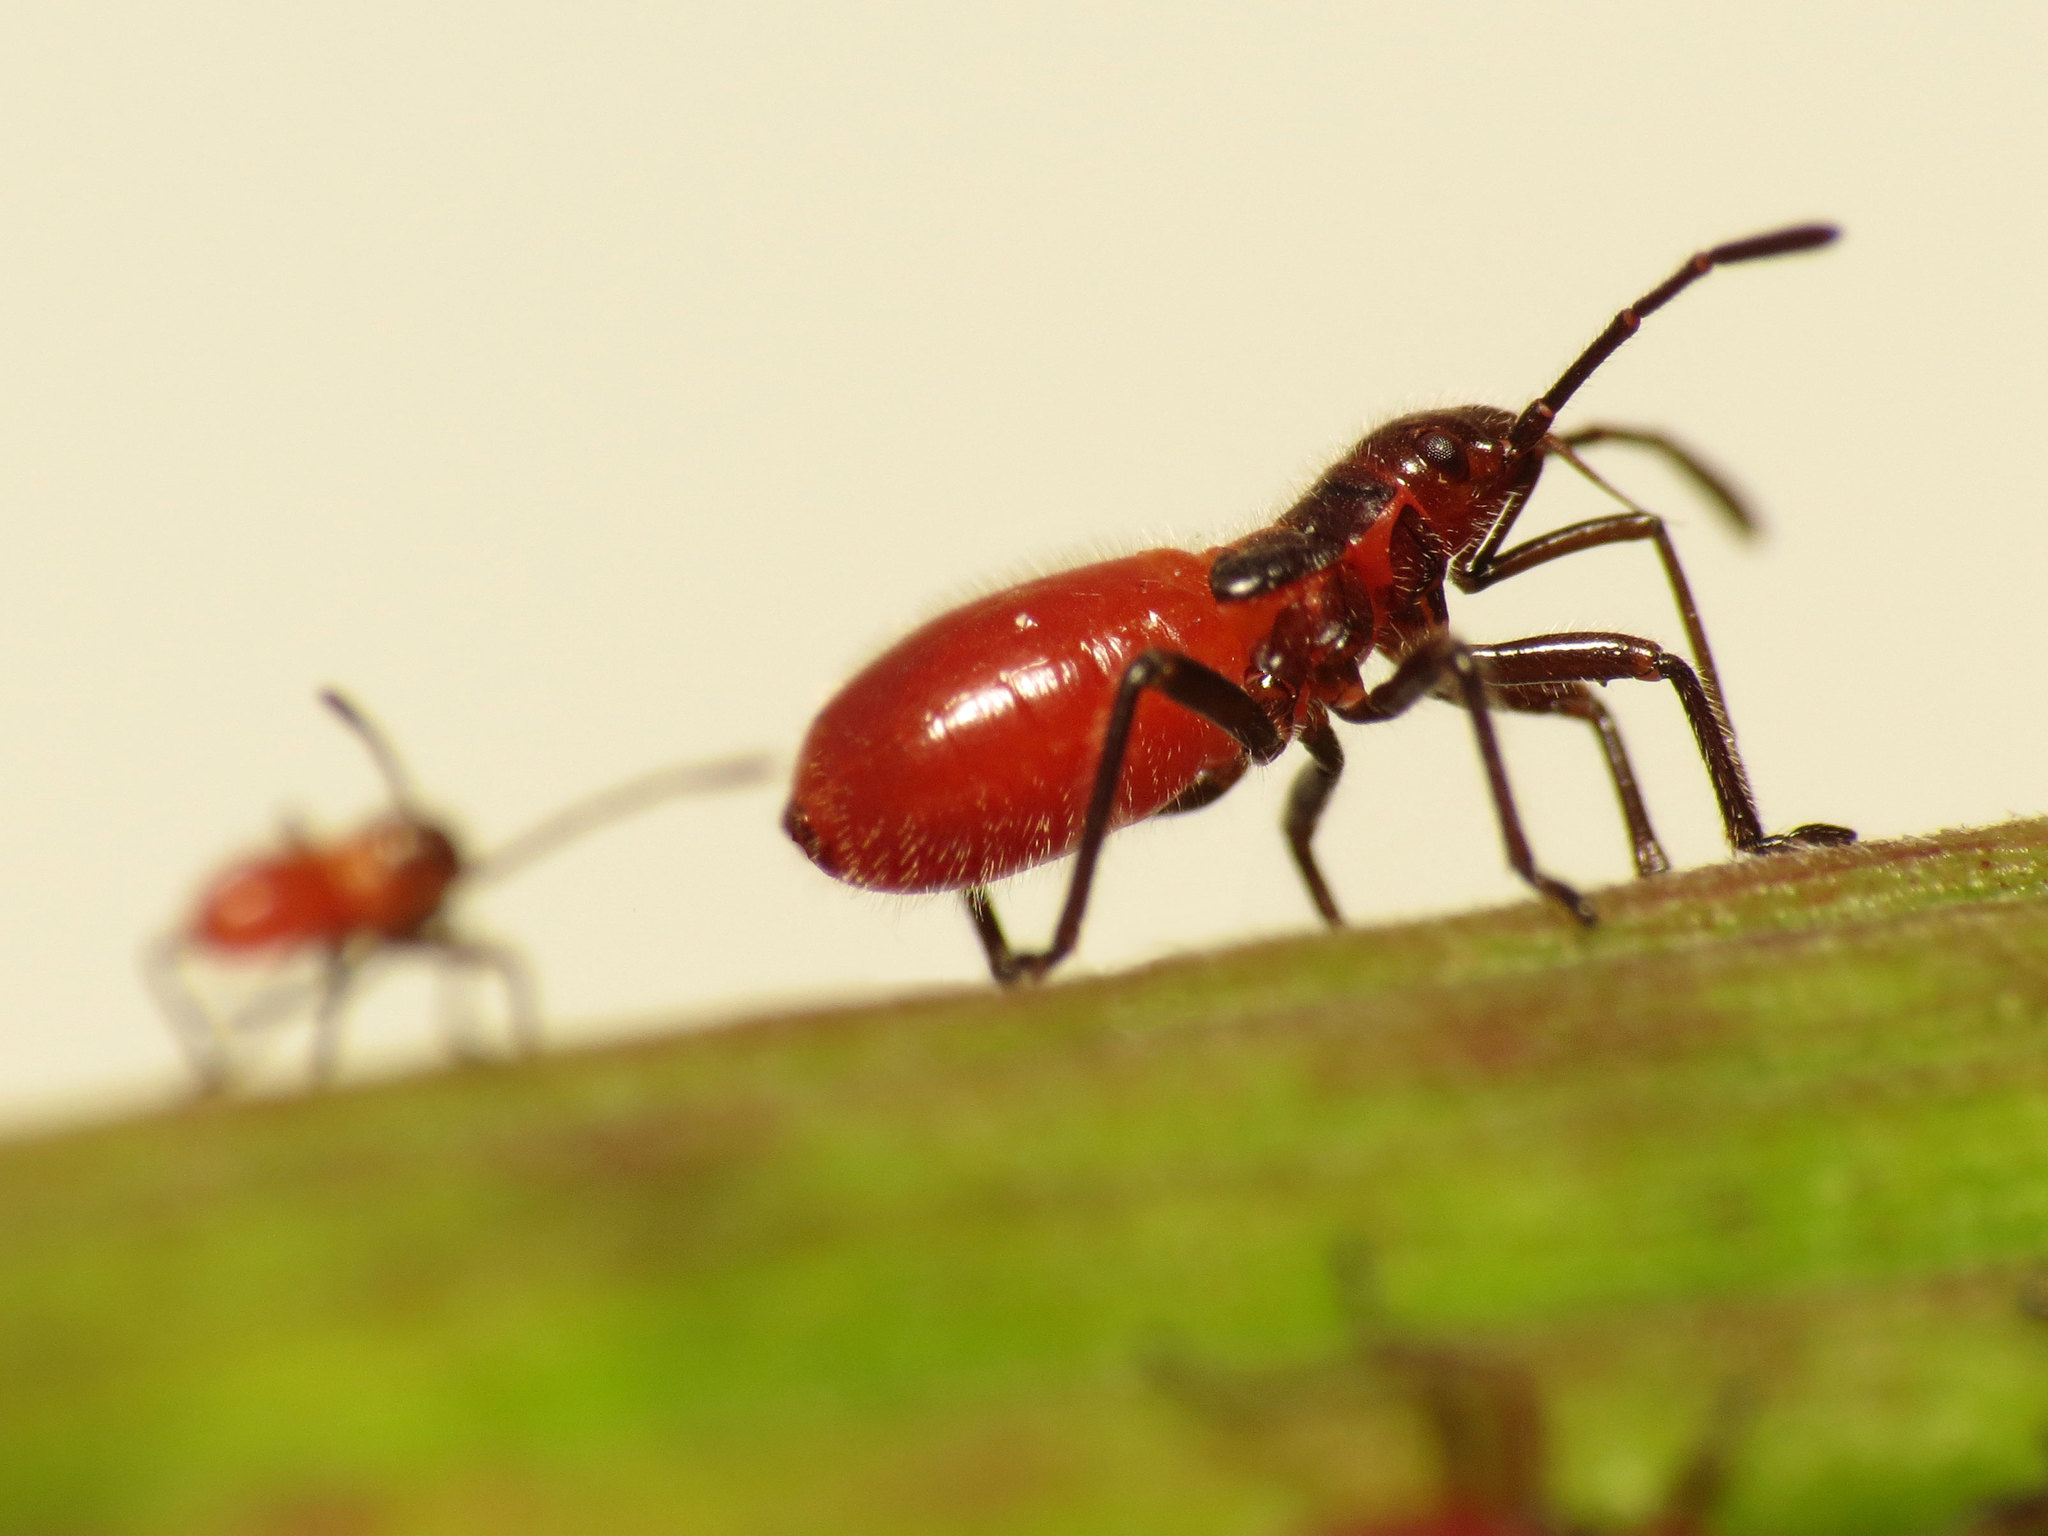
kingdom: Animalia
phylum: Arthropoda
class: Insecta
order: Hemiptera
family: Lygaeidae
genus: Caenocoris
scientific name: Caenocoris nerii
